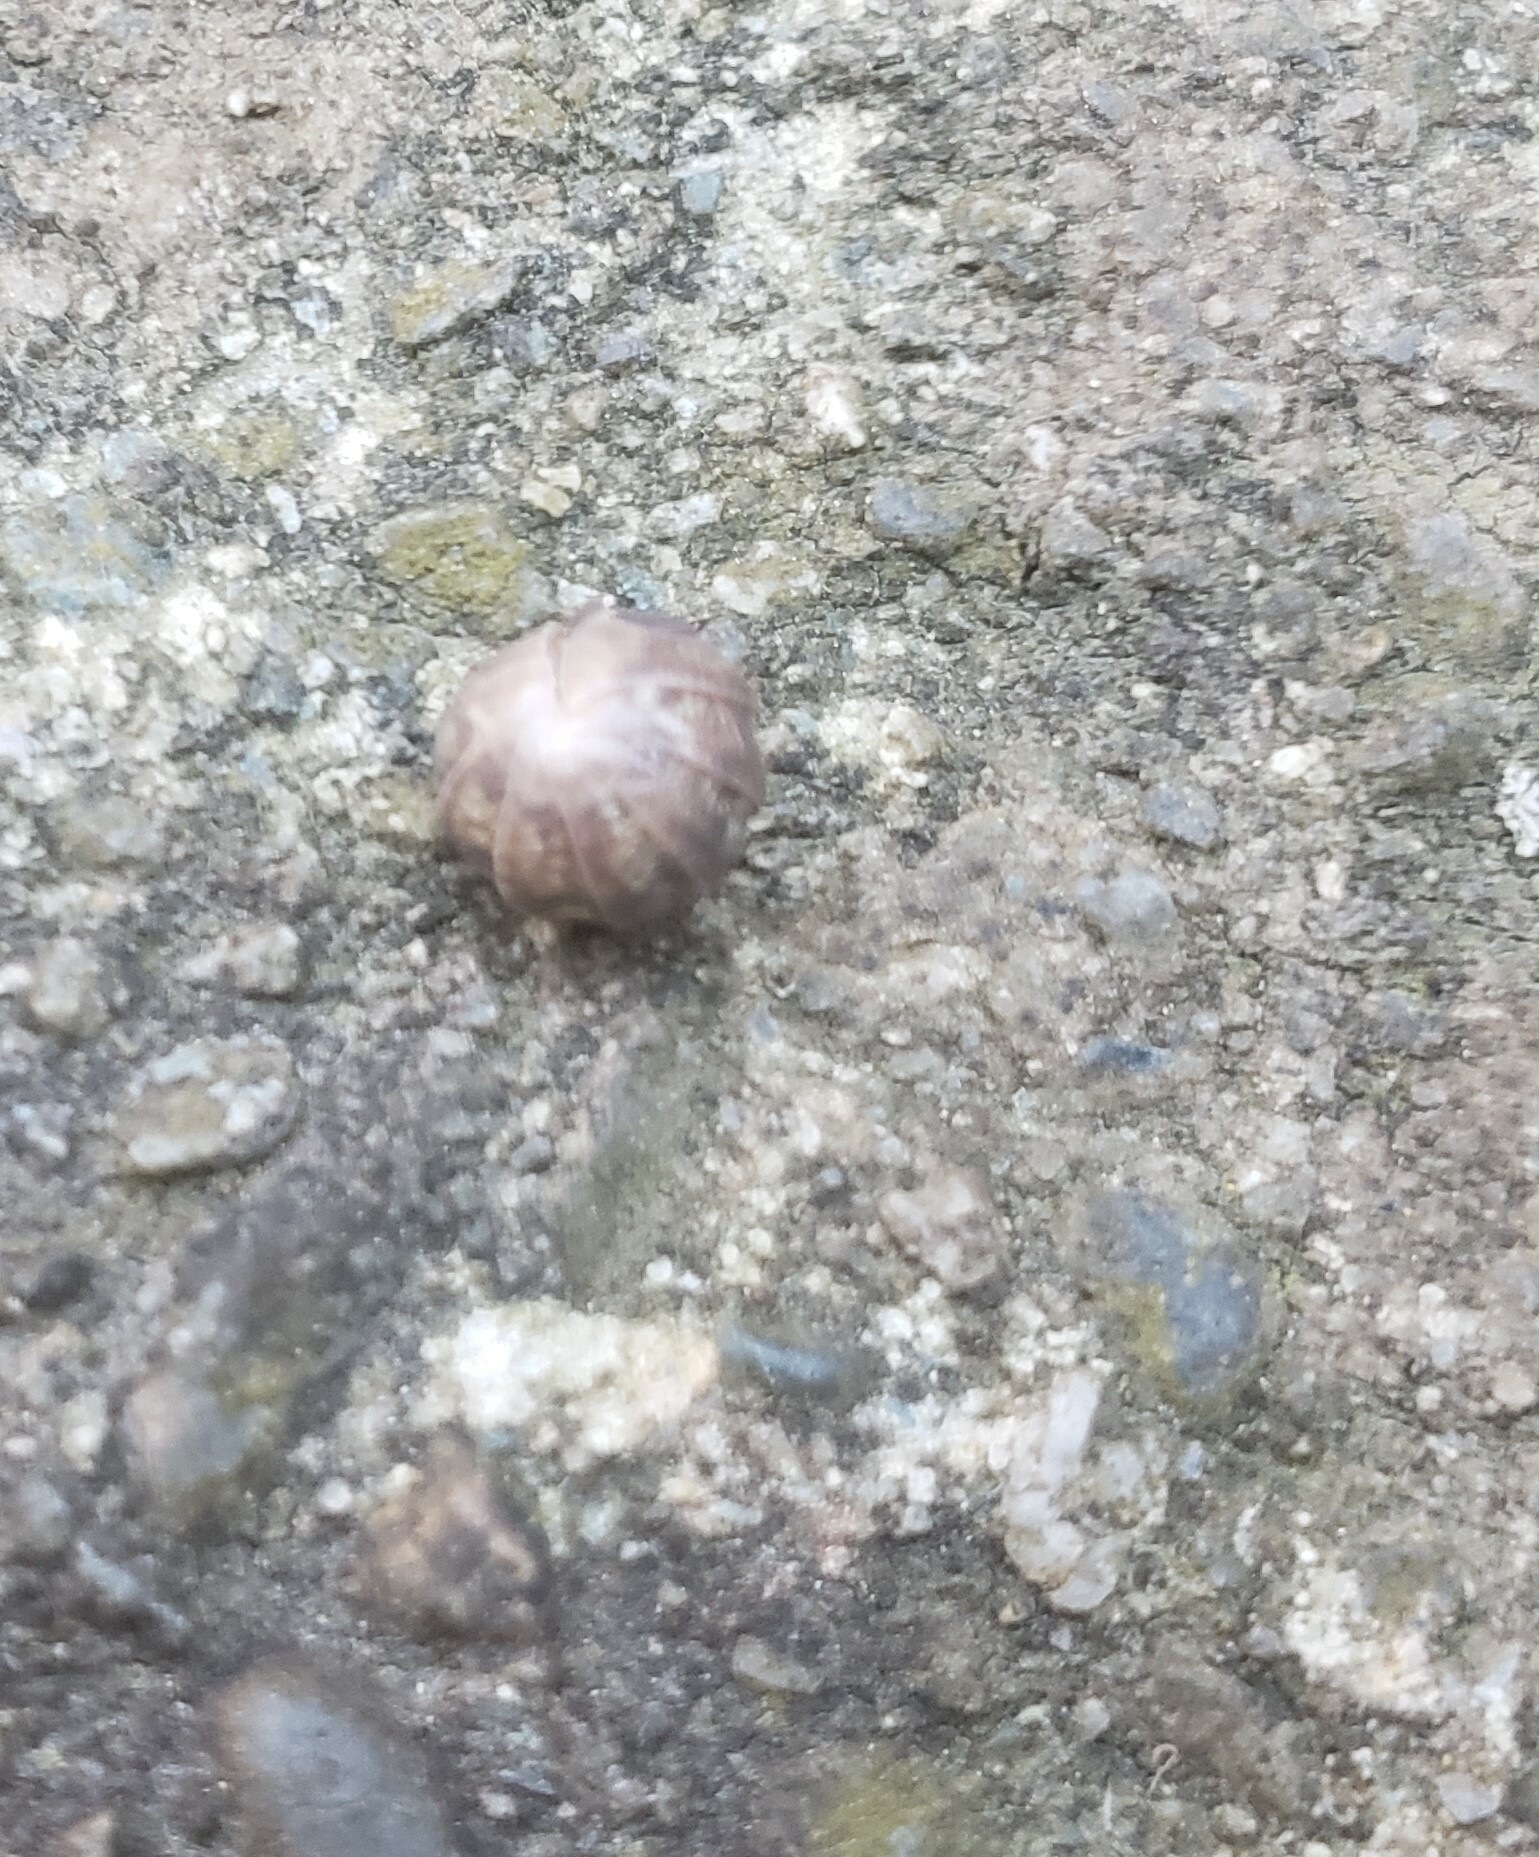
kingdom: Animalia
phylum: Arthropoda
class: Malacostraca
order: Isopoda
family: Armadillidiidae
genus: Armadillidium
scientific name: Armadillidium vulgare
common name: Common pill woodlouse
